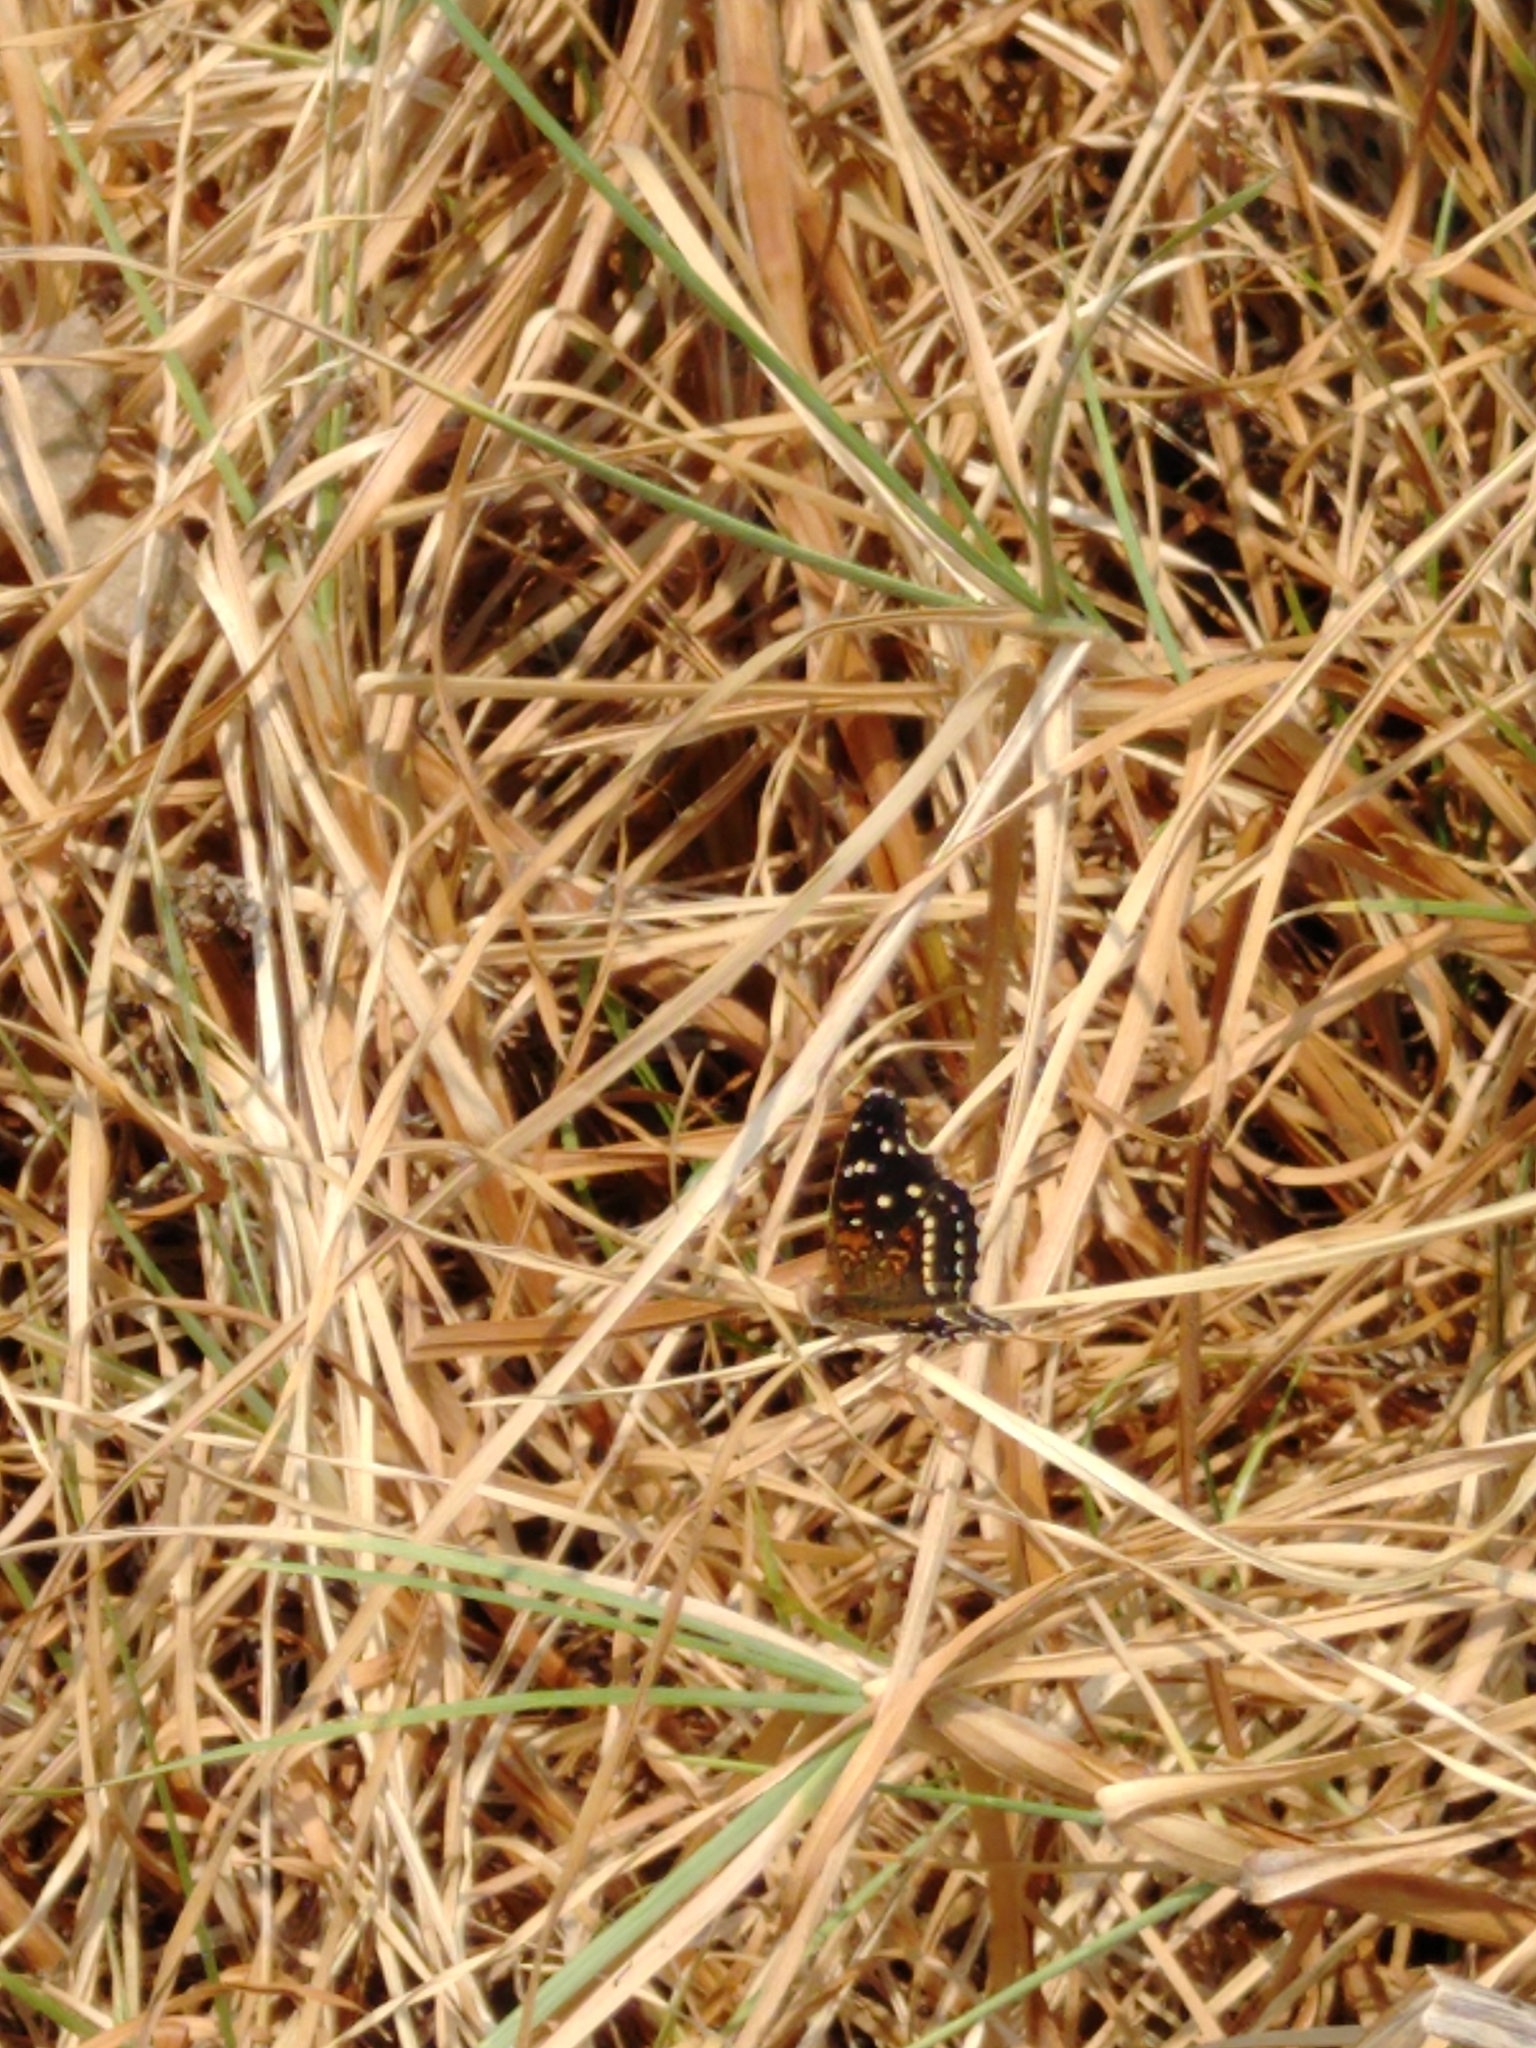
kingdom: Animalia
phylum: Arthropoda
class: Insecta
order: Lepidoptera
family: Nymphalidae
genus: Anthanassa
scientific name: Anthanassa texana
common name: Texan crescent
